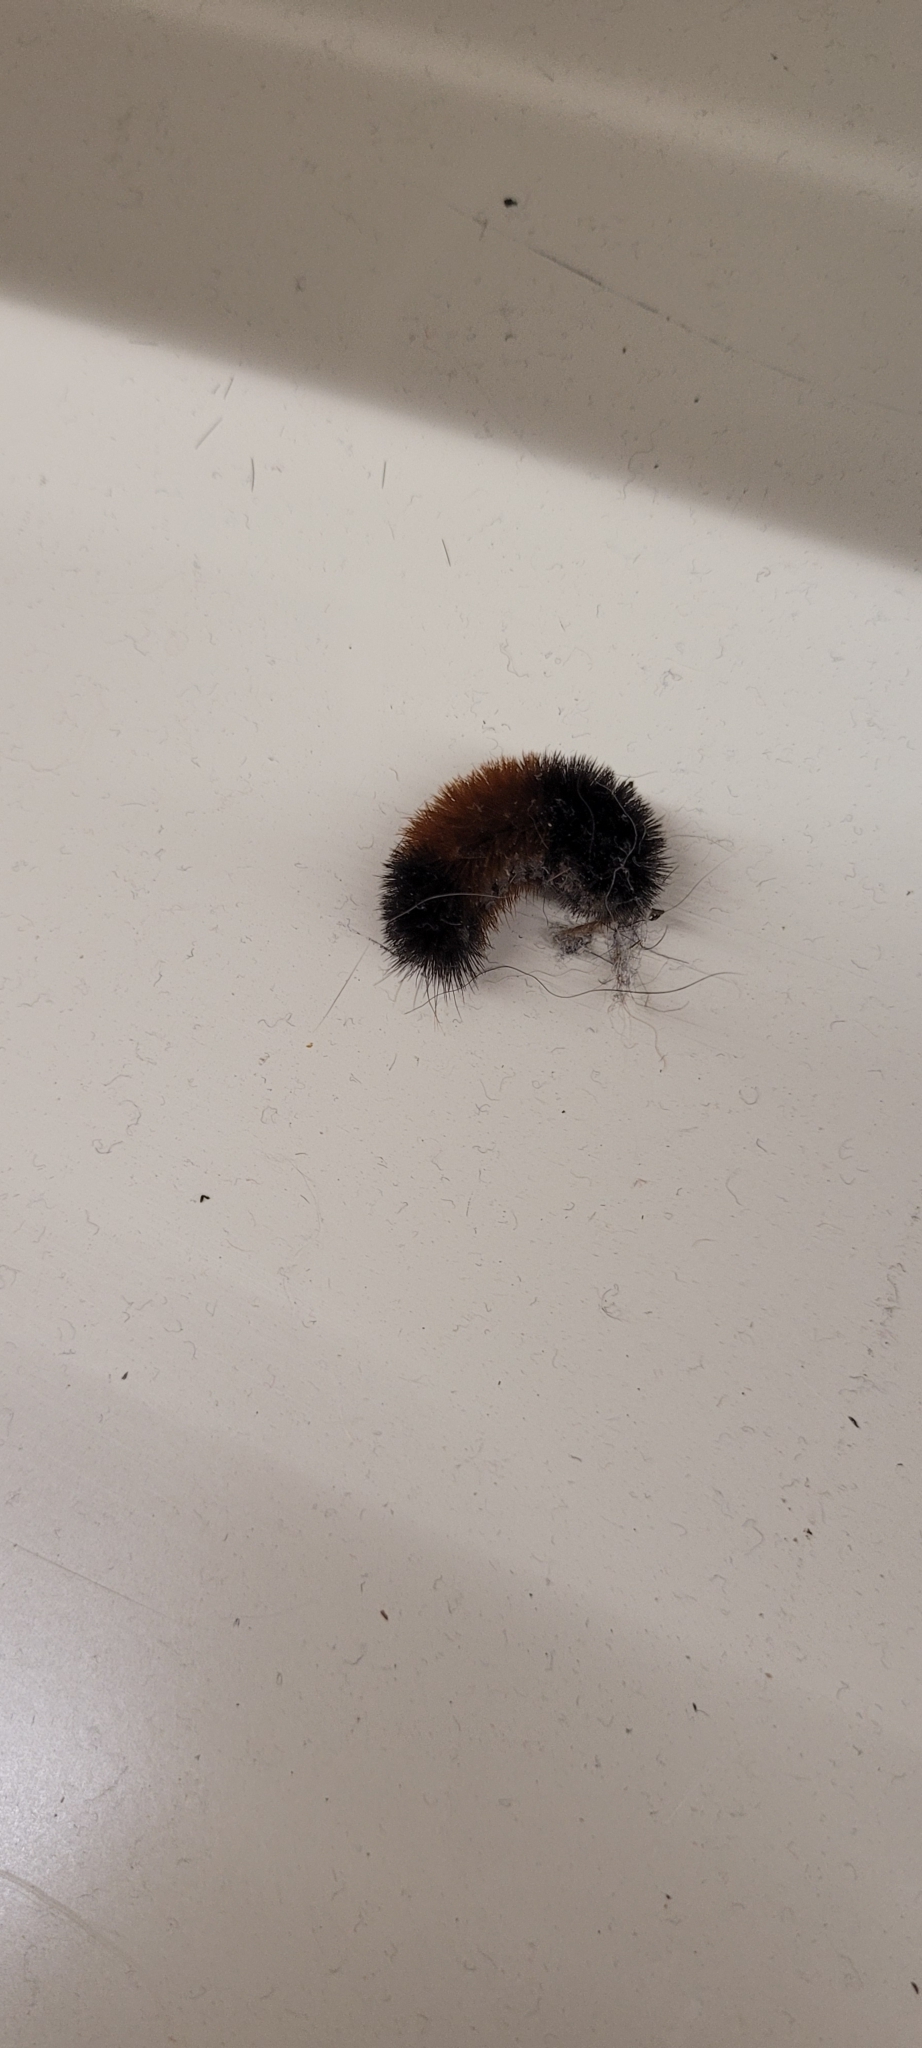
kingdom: Animalia
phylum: Arthropoda
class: Insecta
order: Lepidoptera
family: Erebidae
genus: Pyrrharctia
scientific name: Pyrrharctia isabella
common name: Isabella tiger moth
